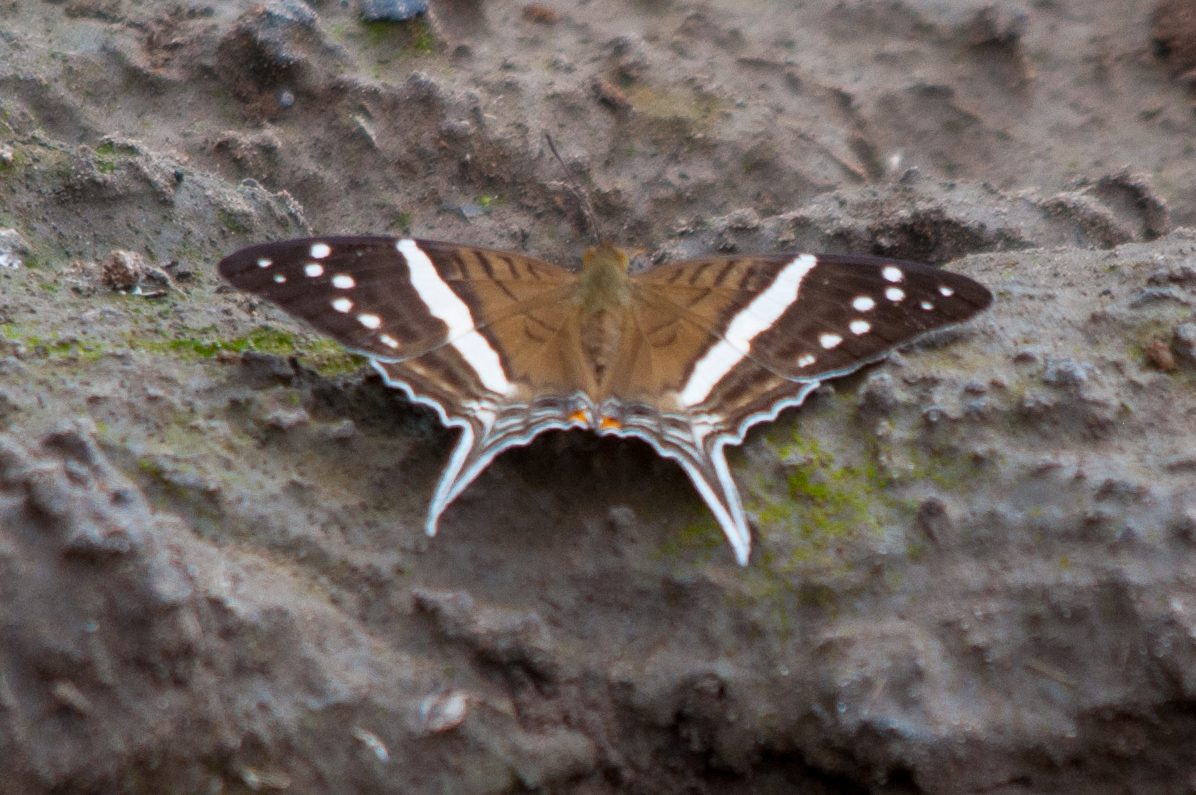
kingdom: Animalia
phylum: Arthropoda
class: Insecta
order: Lepidoptera
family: Nymphalidae
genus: Marpesia
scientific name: Marpesia crethon
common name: Crethon daggerwing
